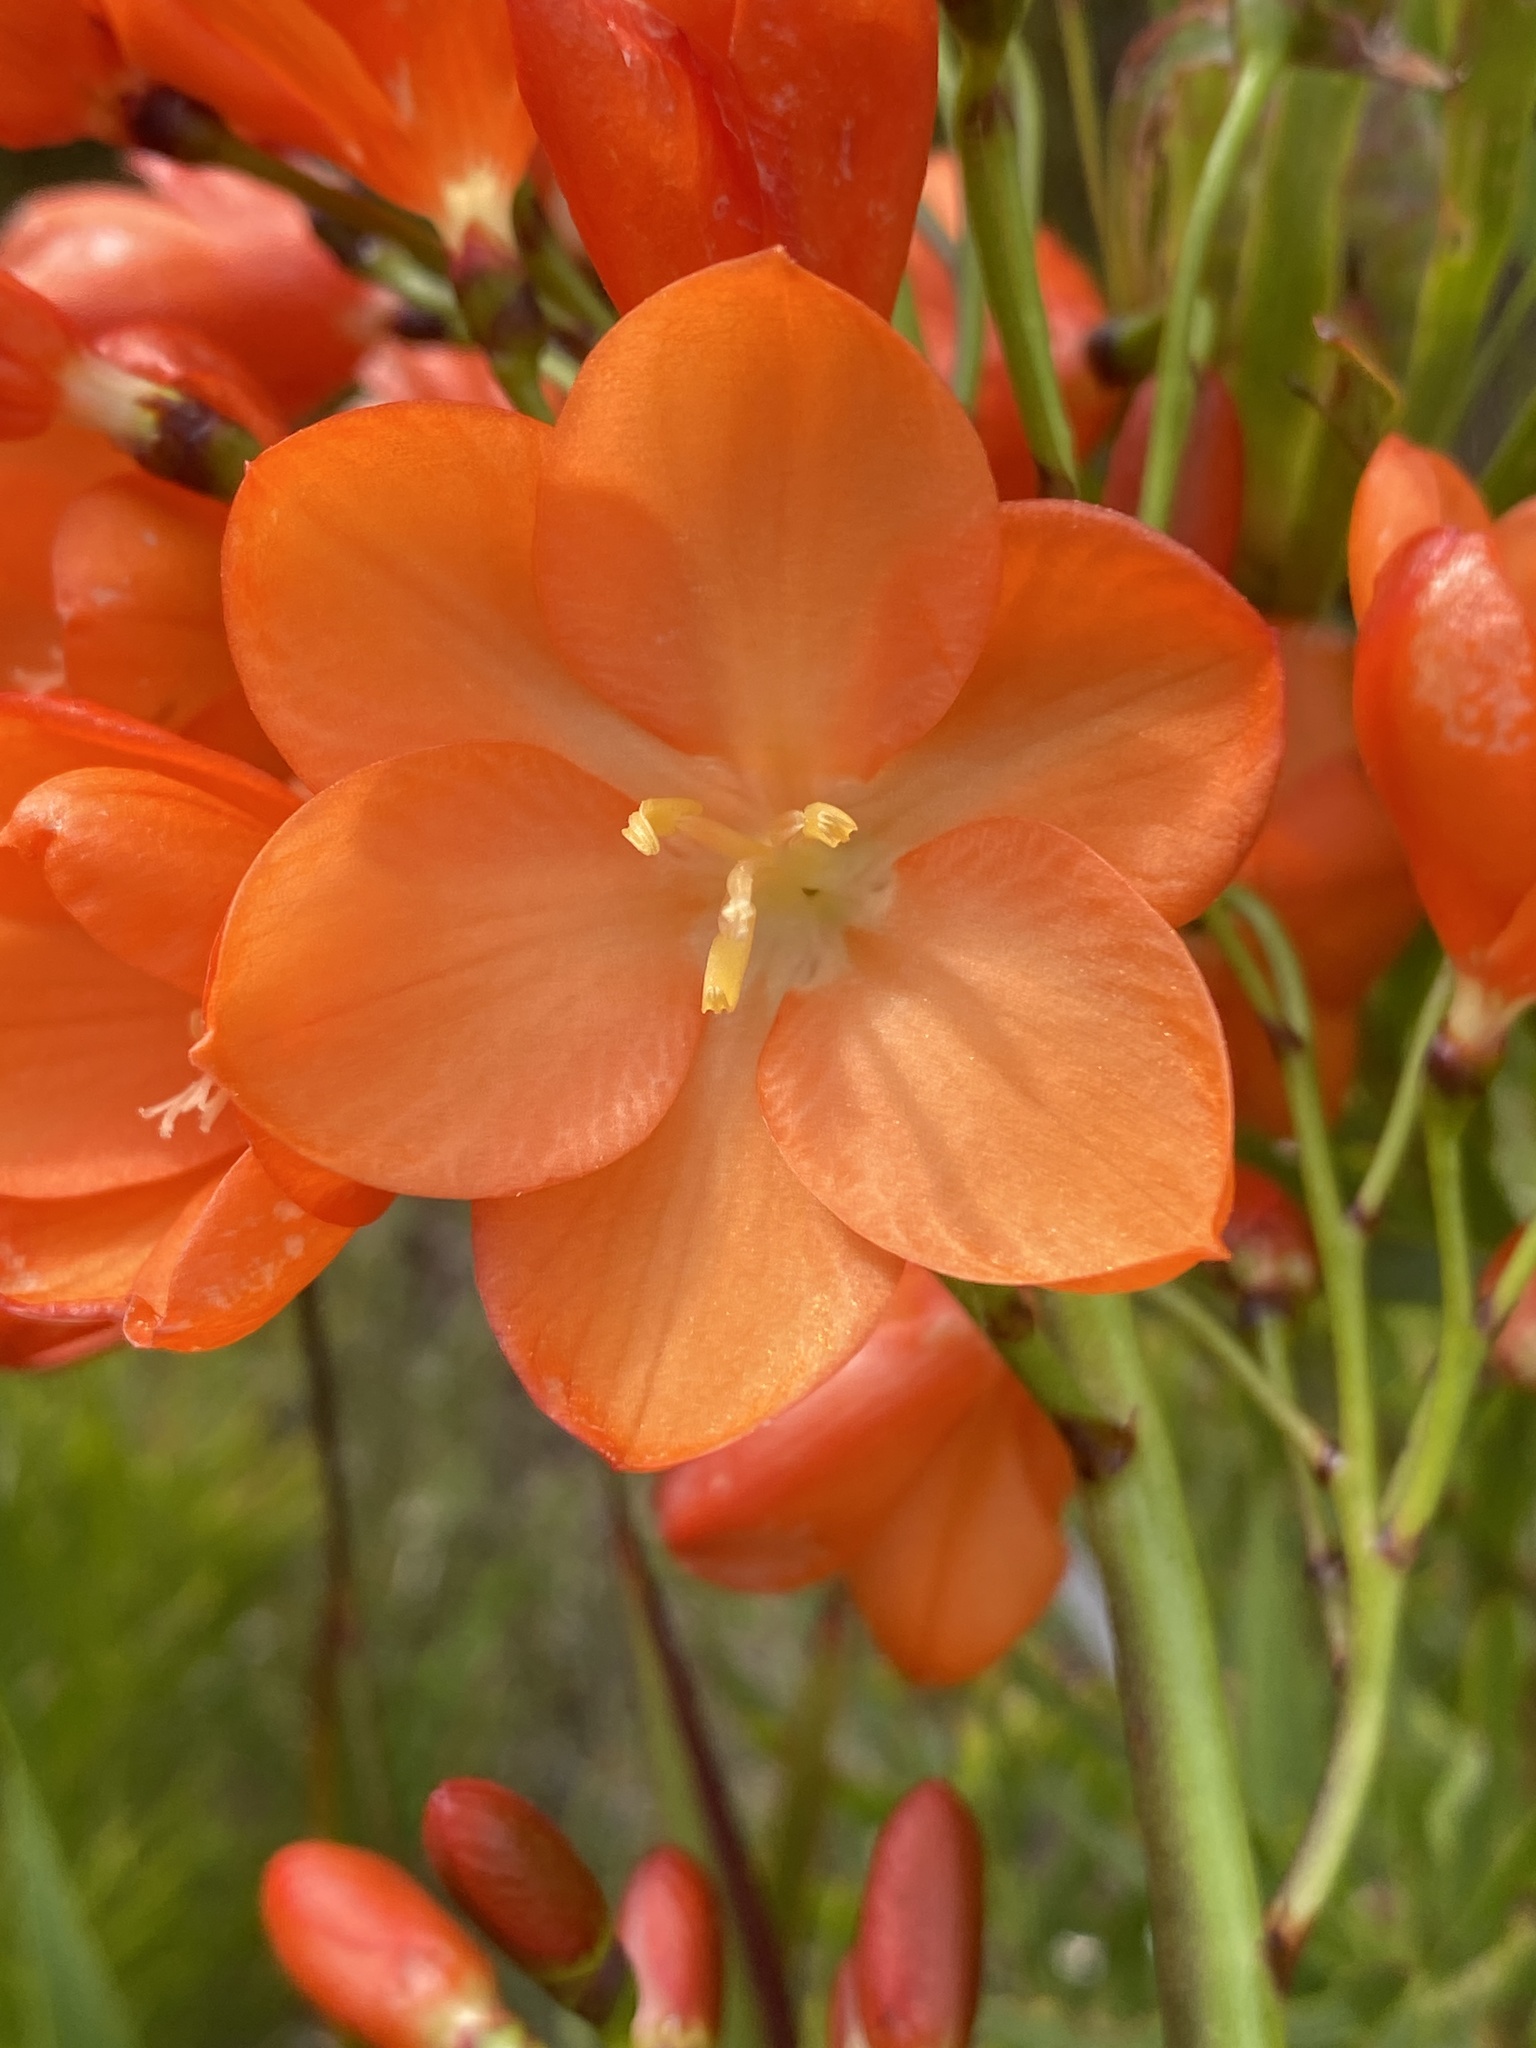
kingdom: Plantae
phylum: Tracheophyta
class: Liliopsida
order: Asparagales
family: Iridaceae
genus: Pillansia
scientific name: Pillansia templemannii
